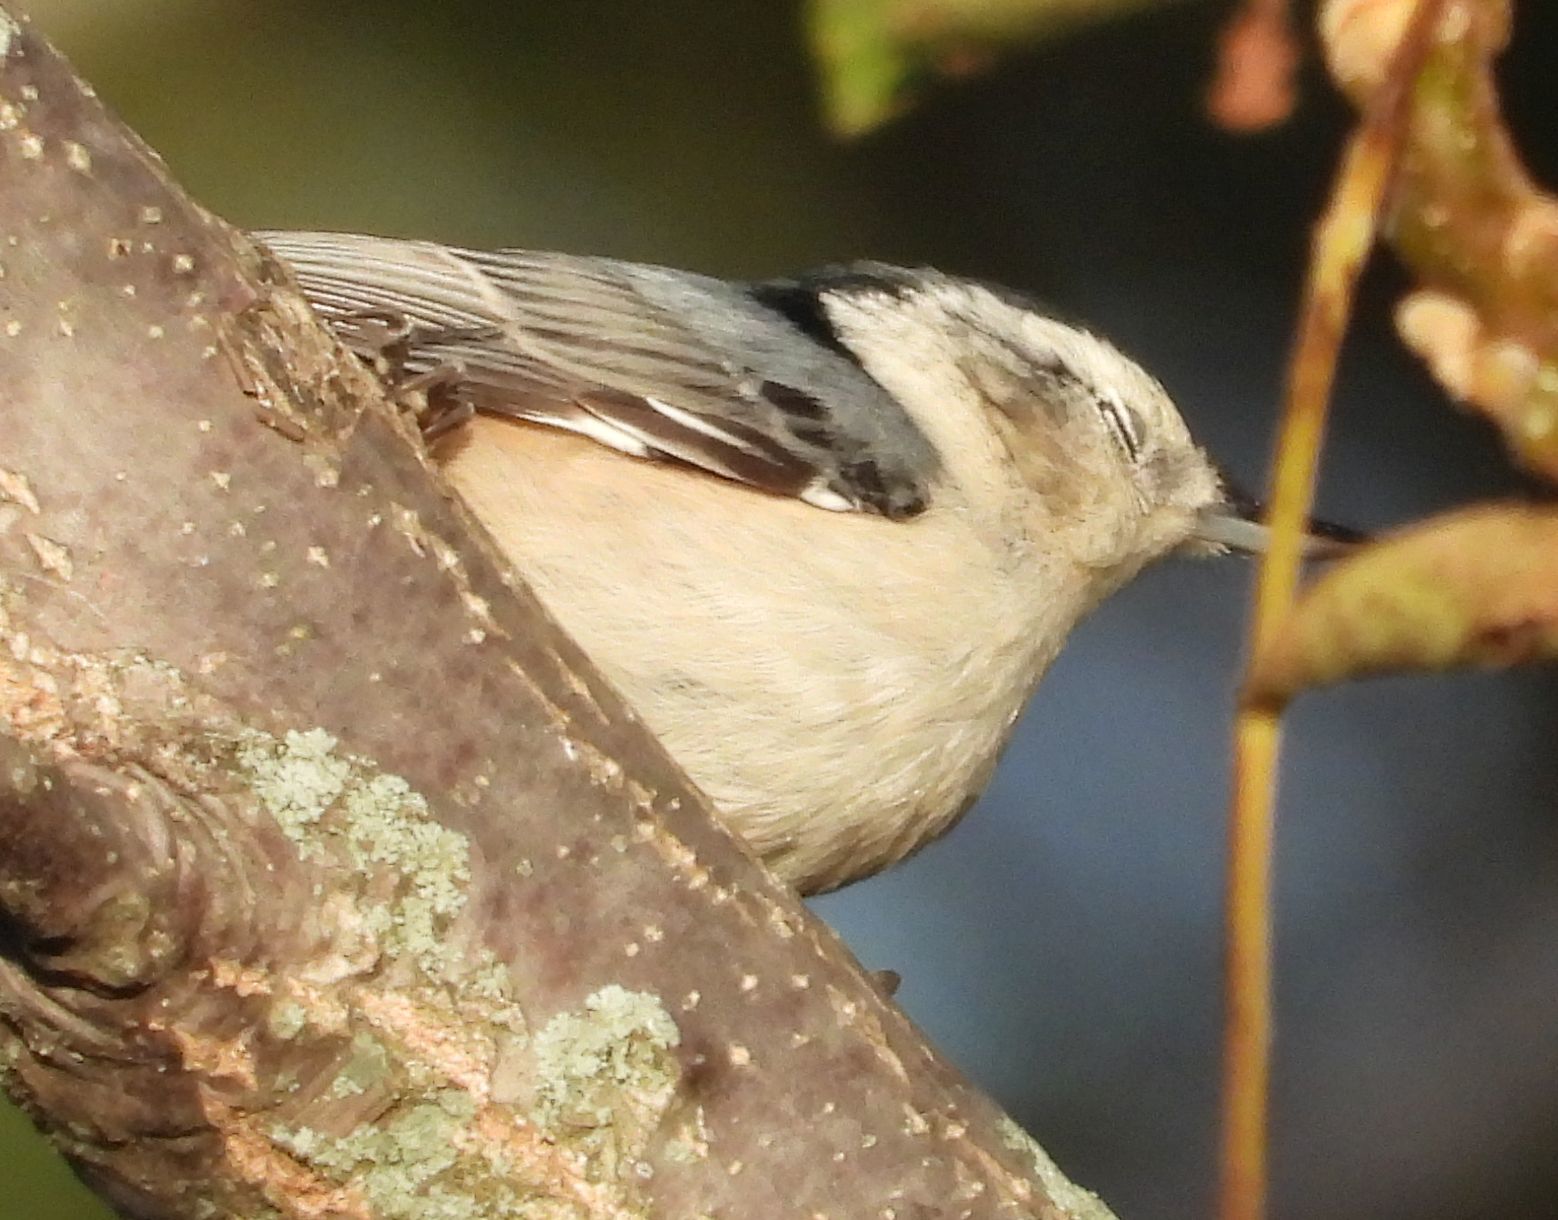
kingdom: Animalia
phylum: Chordata
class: Aves
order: Passeriformes
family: Sittidae
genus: Sitta
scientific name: Sitta carolinensis
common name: White-breasted nuthatch
